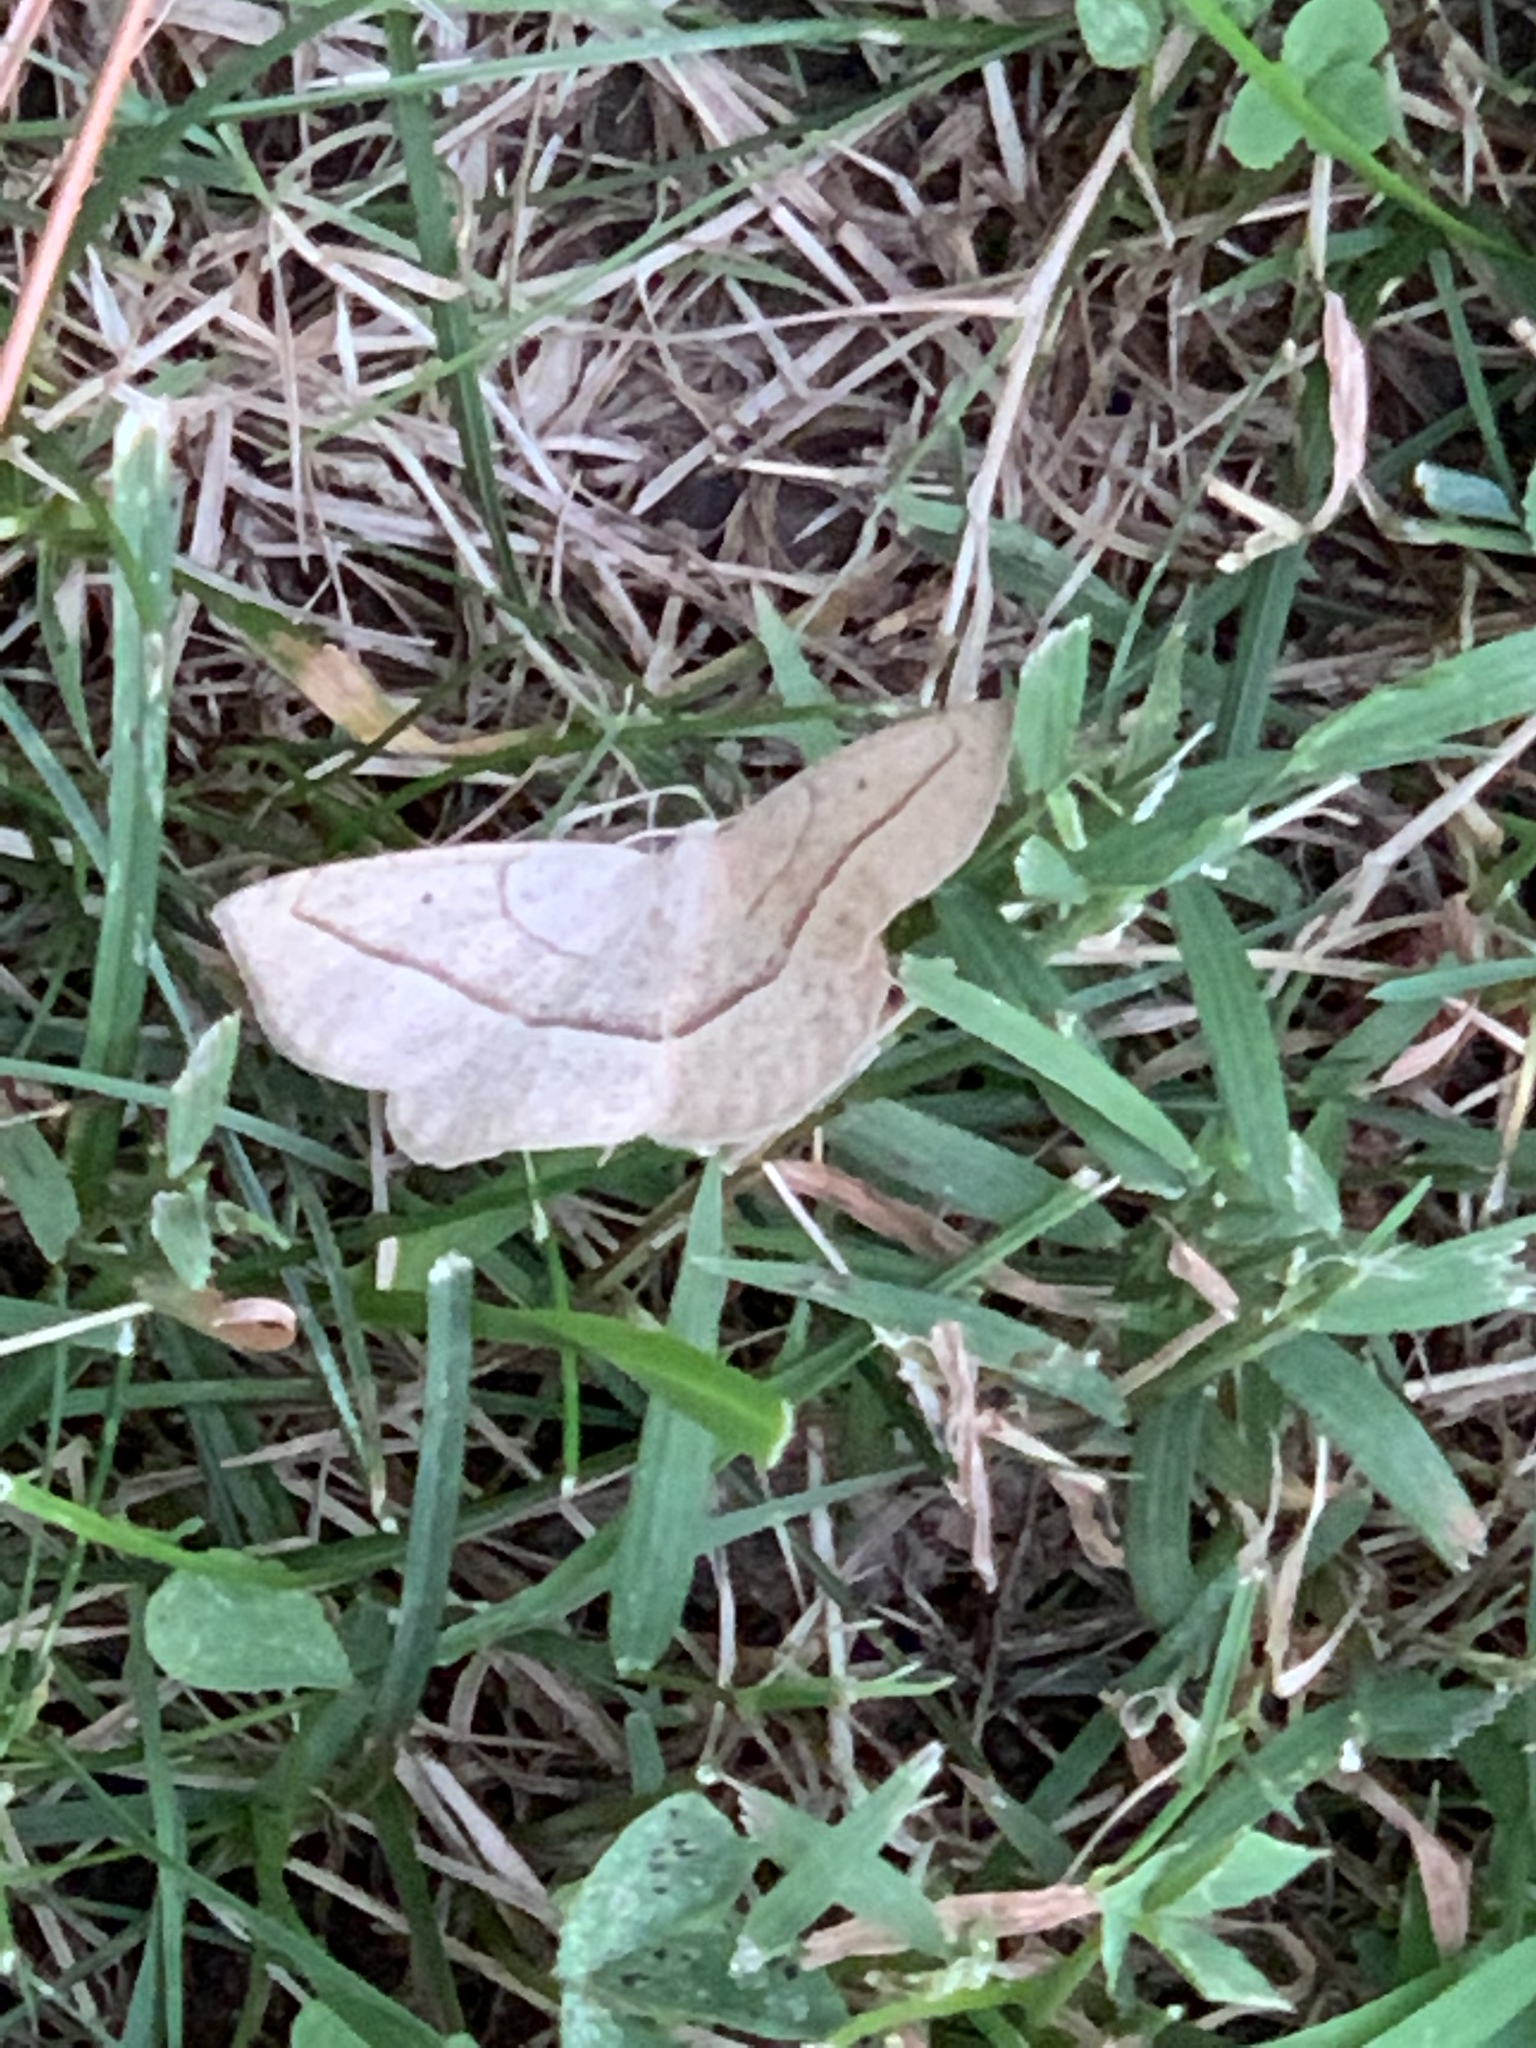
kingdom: Animalia
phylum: Arthropoda
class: Insecta
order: Lepidoptera
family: Geometridae
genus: Eusarca
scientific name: Eusarca confusaria
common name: Confused eusarca
